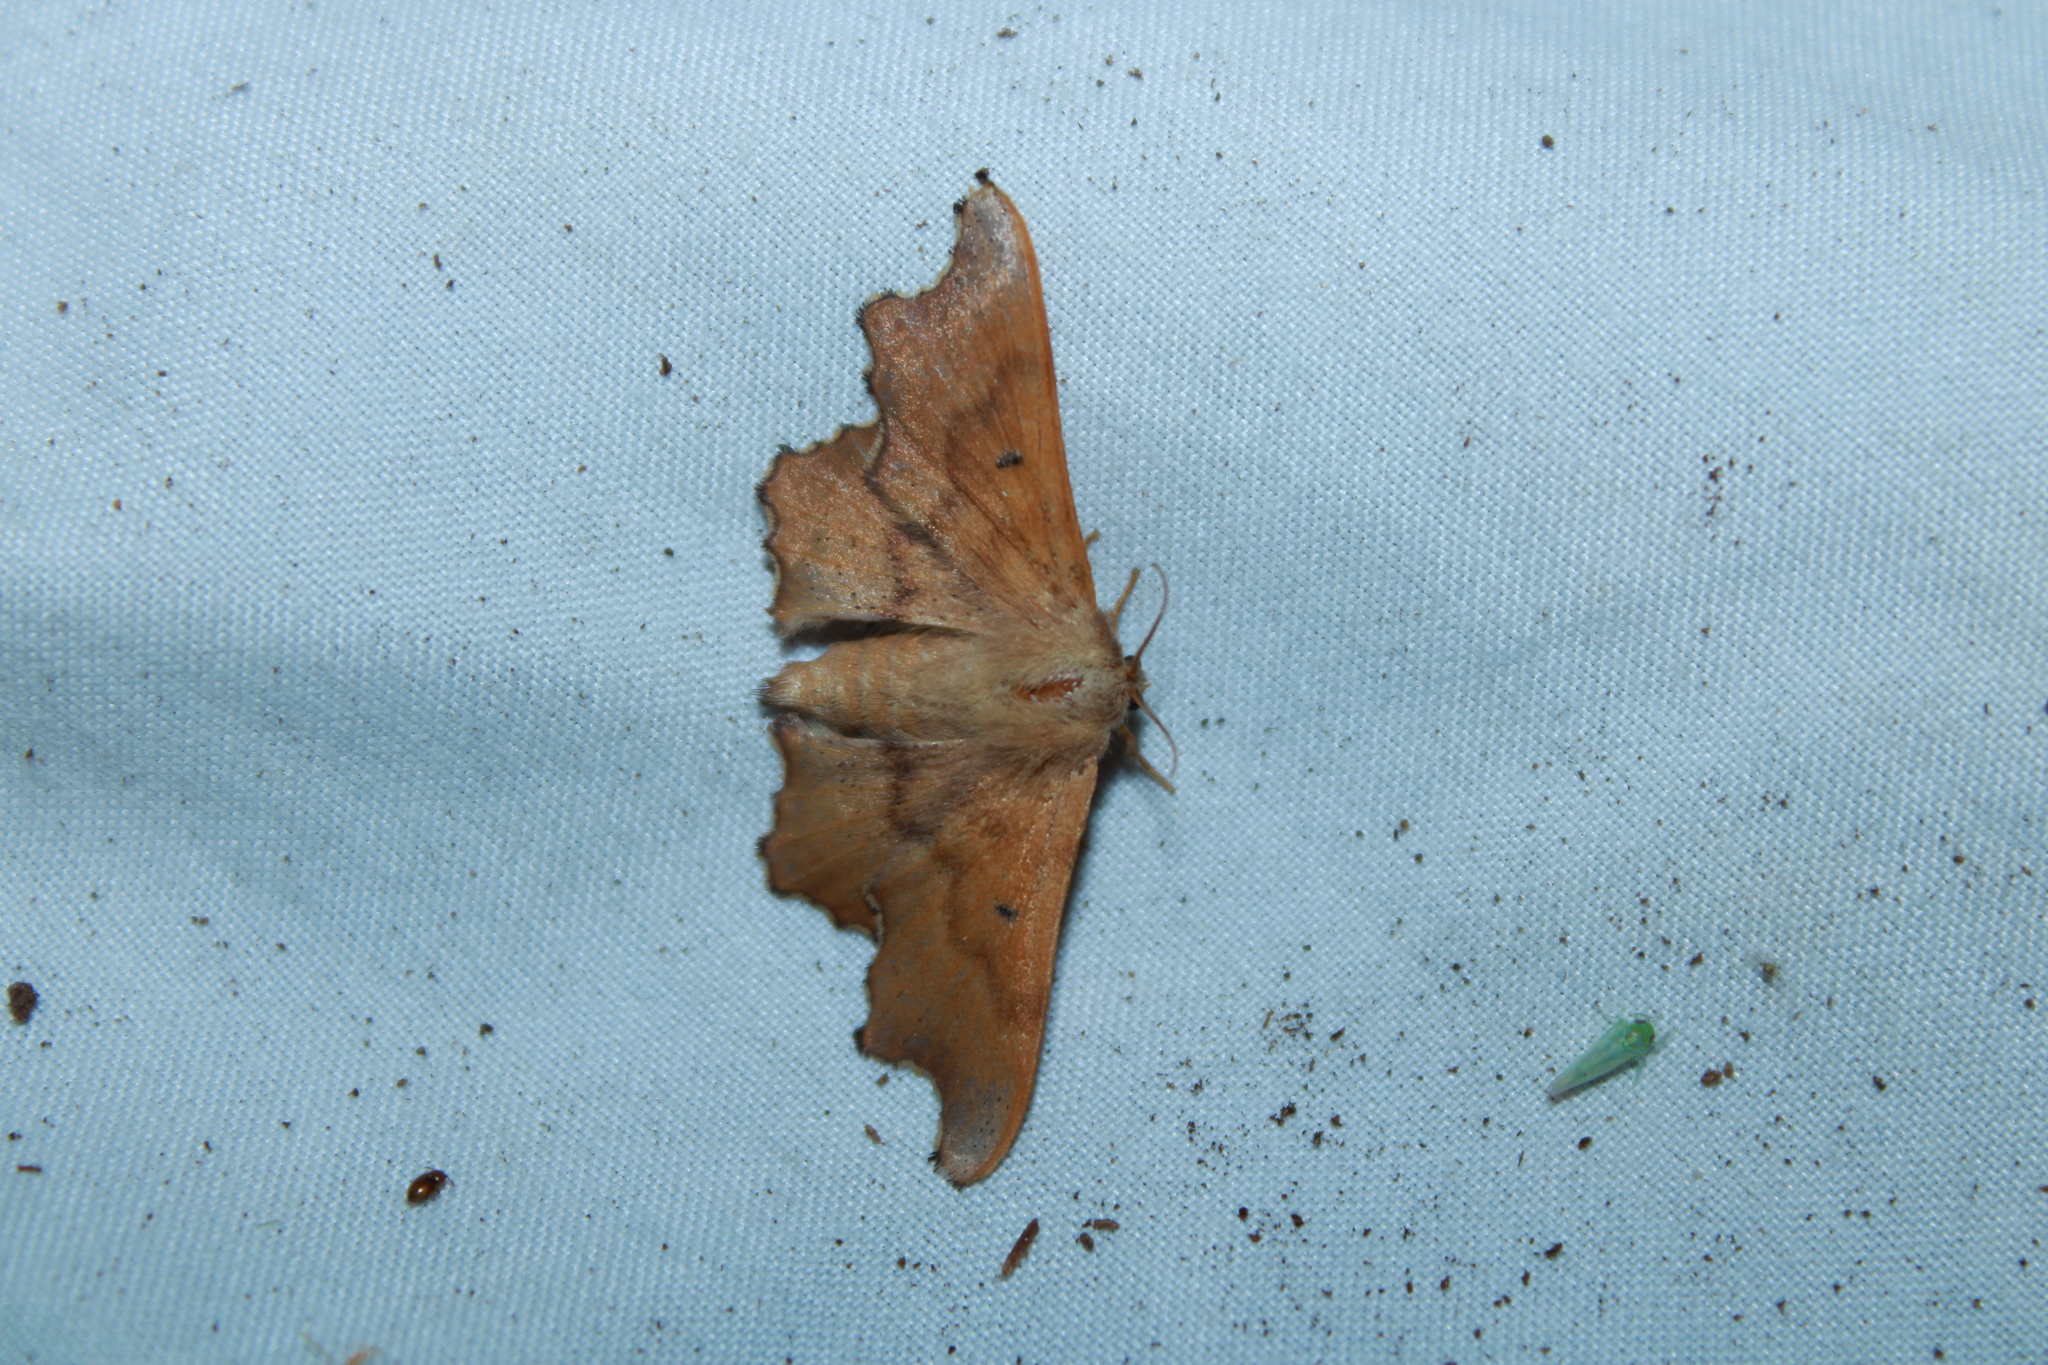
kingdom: Animalia
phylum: Arthropoda
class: Insecta
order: Lepidoptera
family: Mimallonidae
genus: Lacosoma
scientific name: Lacosoma chiridota
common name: Scalloped sack-bearer moth
